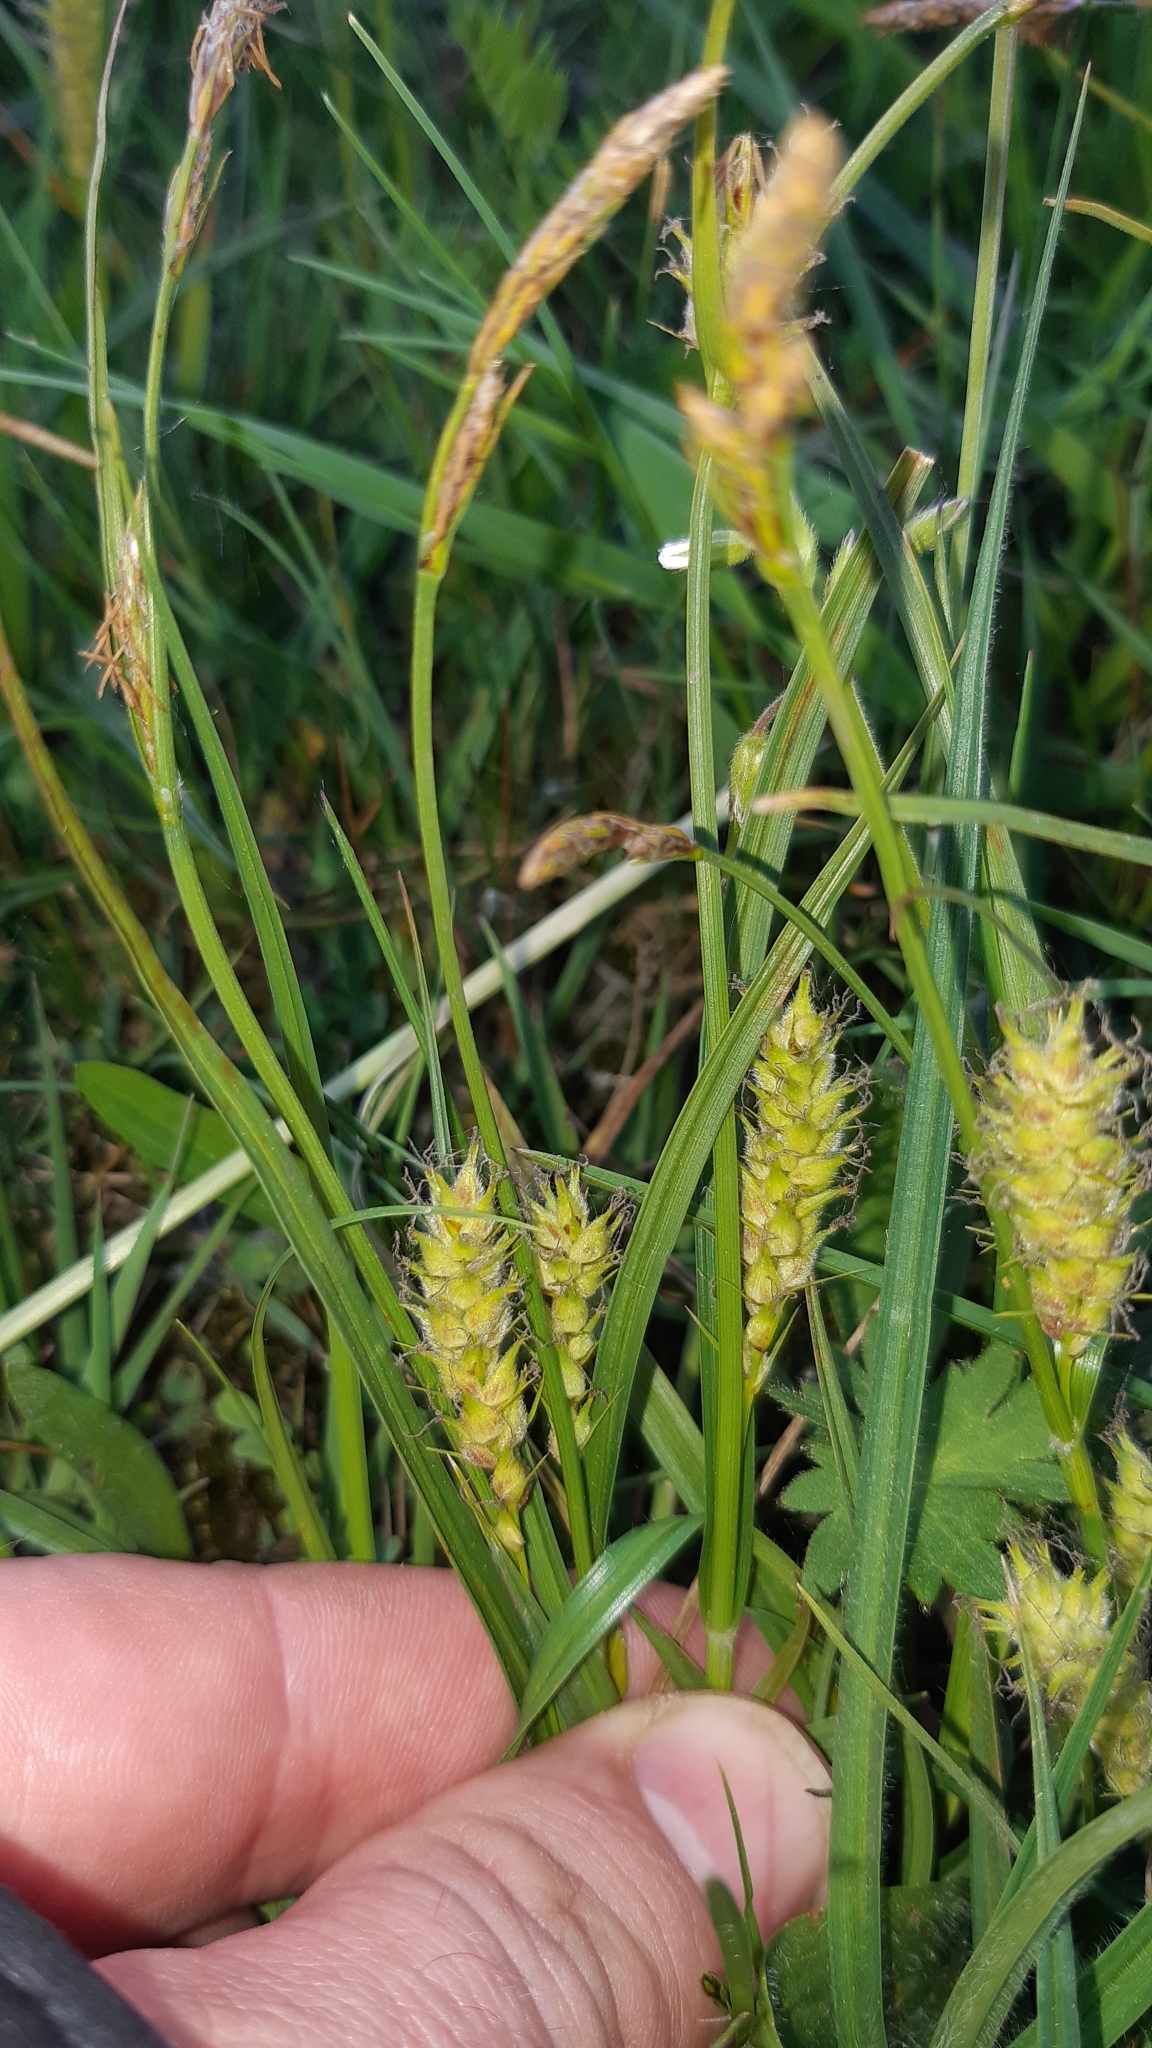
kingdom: Plantae
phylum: Tracheophyta
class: Liliopsida
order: Poales
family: Cyperaceae
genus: Carex
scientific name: Carex hirta
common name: Hairy sedge
